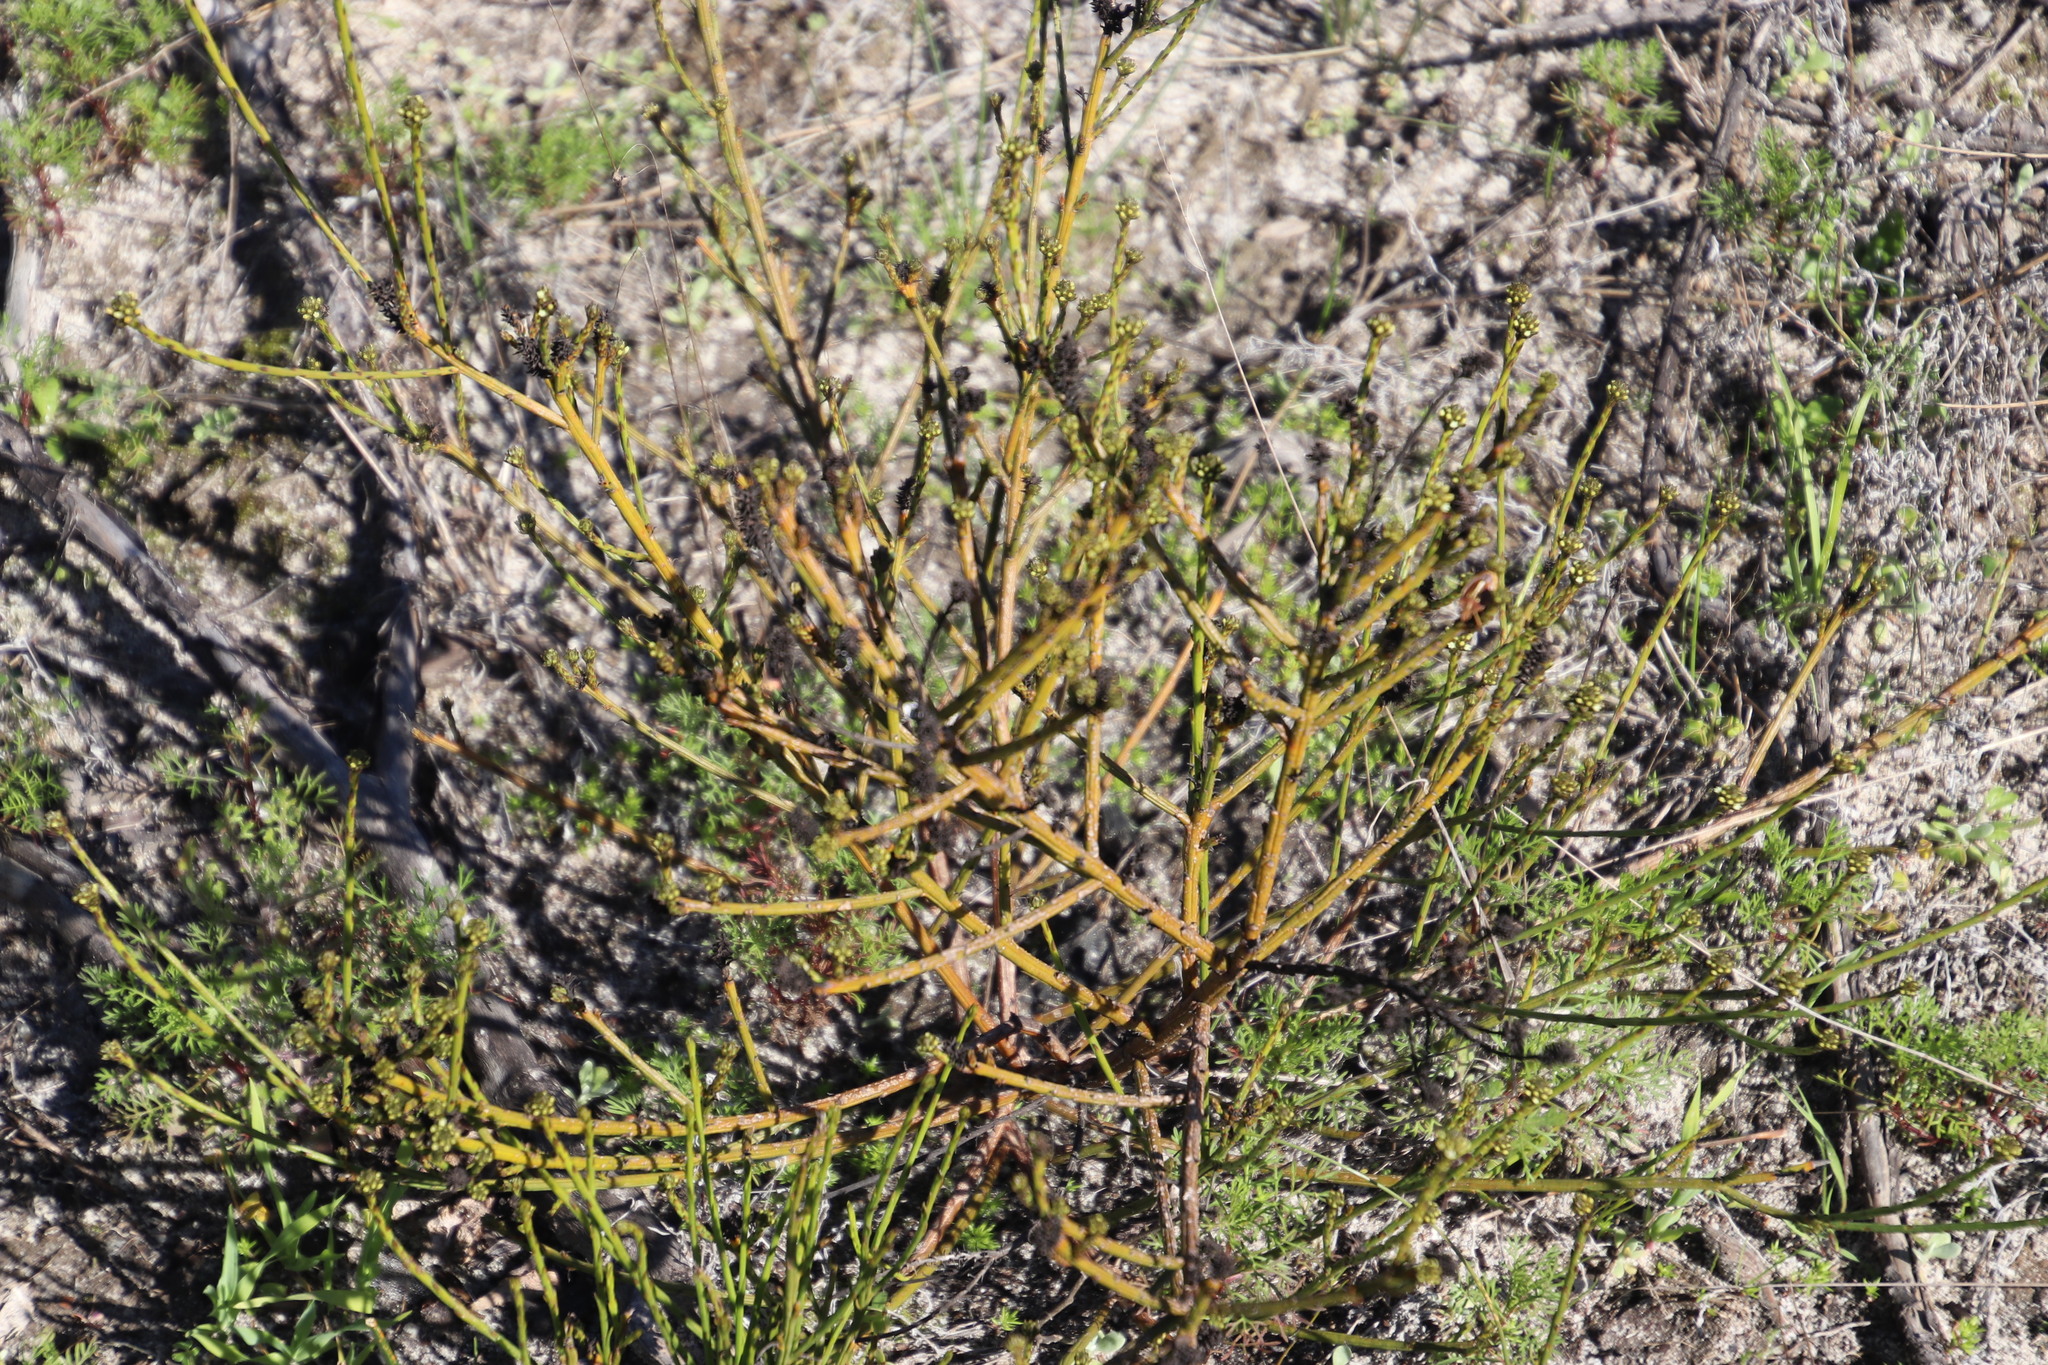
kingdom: Plantae
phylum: Tracheophyta
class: Magnoliopsida
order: Santalales
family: Thesiaceae
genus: Thesium
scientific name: Thesium aggregatum
